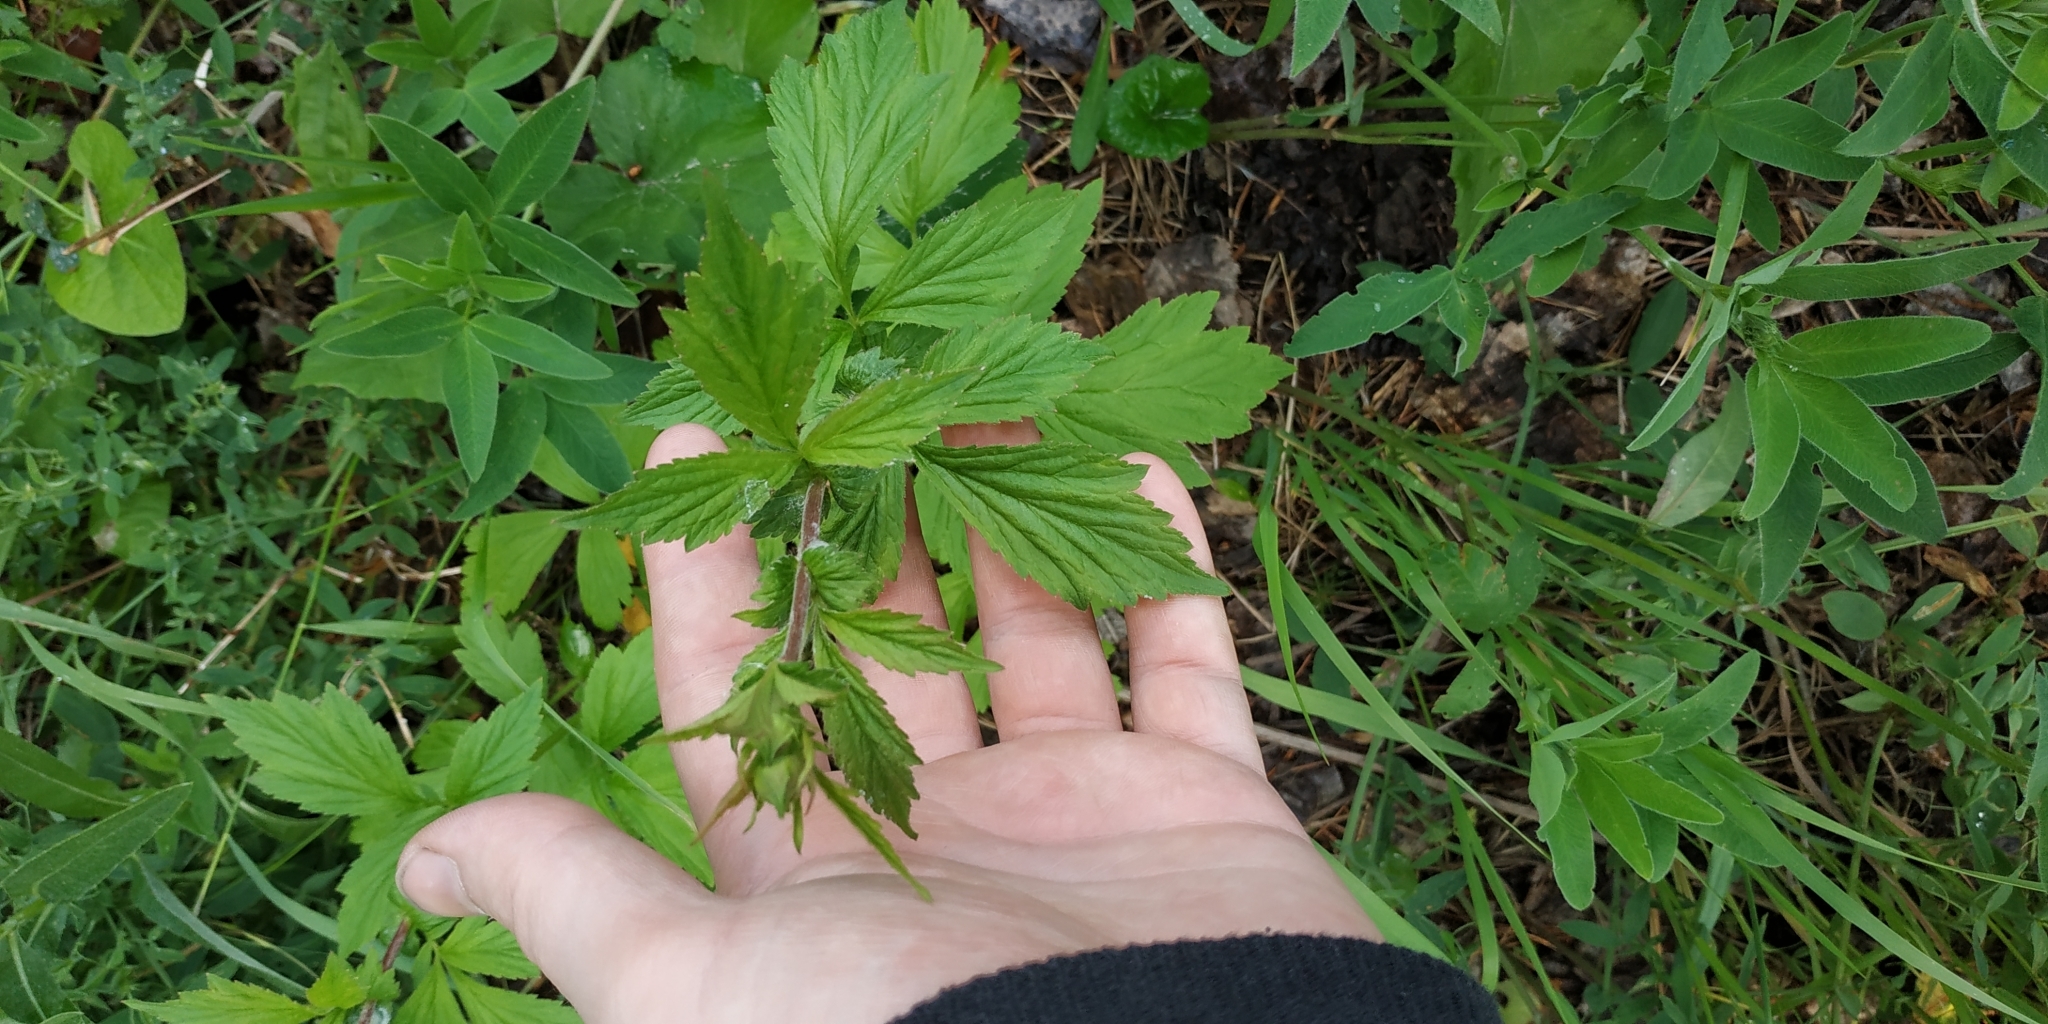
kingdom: Plantae
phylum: Tracheophyta
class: Magnoliopsida
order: Rosales
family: Rosaceae
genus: Geum
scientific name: Geum aleppicum
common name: Yellow avens
